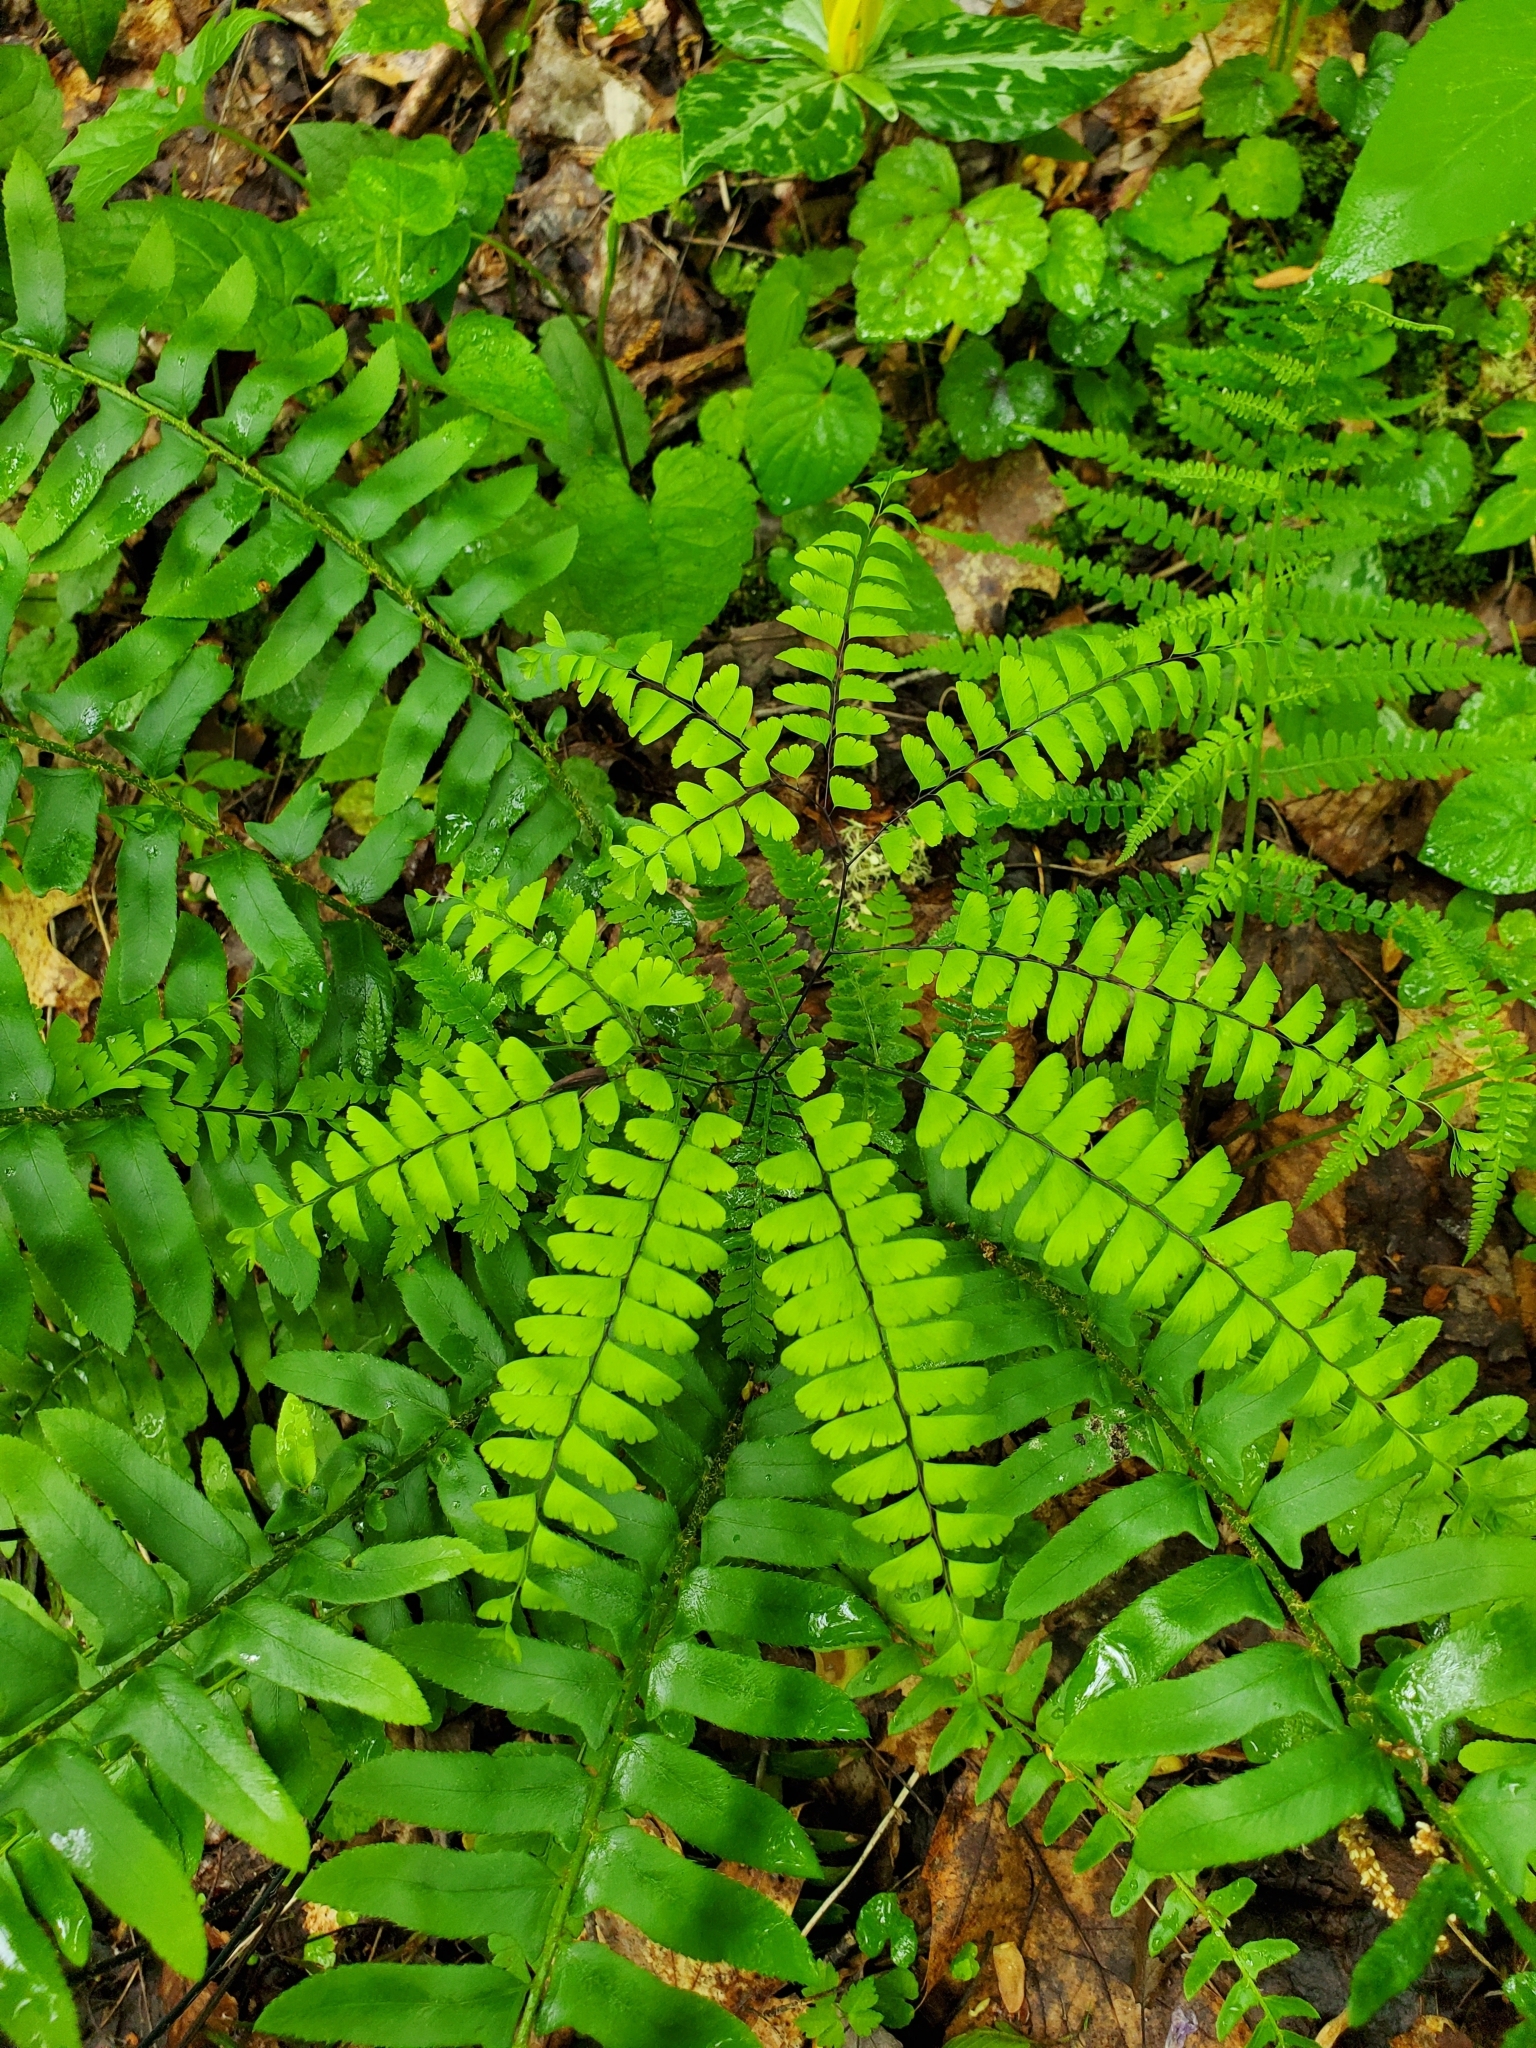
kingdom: Plantae
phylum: Tracheophyta
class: Polypodiopsida
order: Polypodiales
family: Pteridaceae
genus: Adiantum
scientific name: Adiantum pedatum
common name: Five-finger fern
